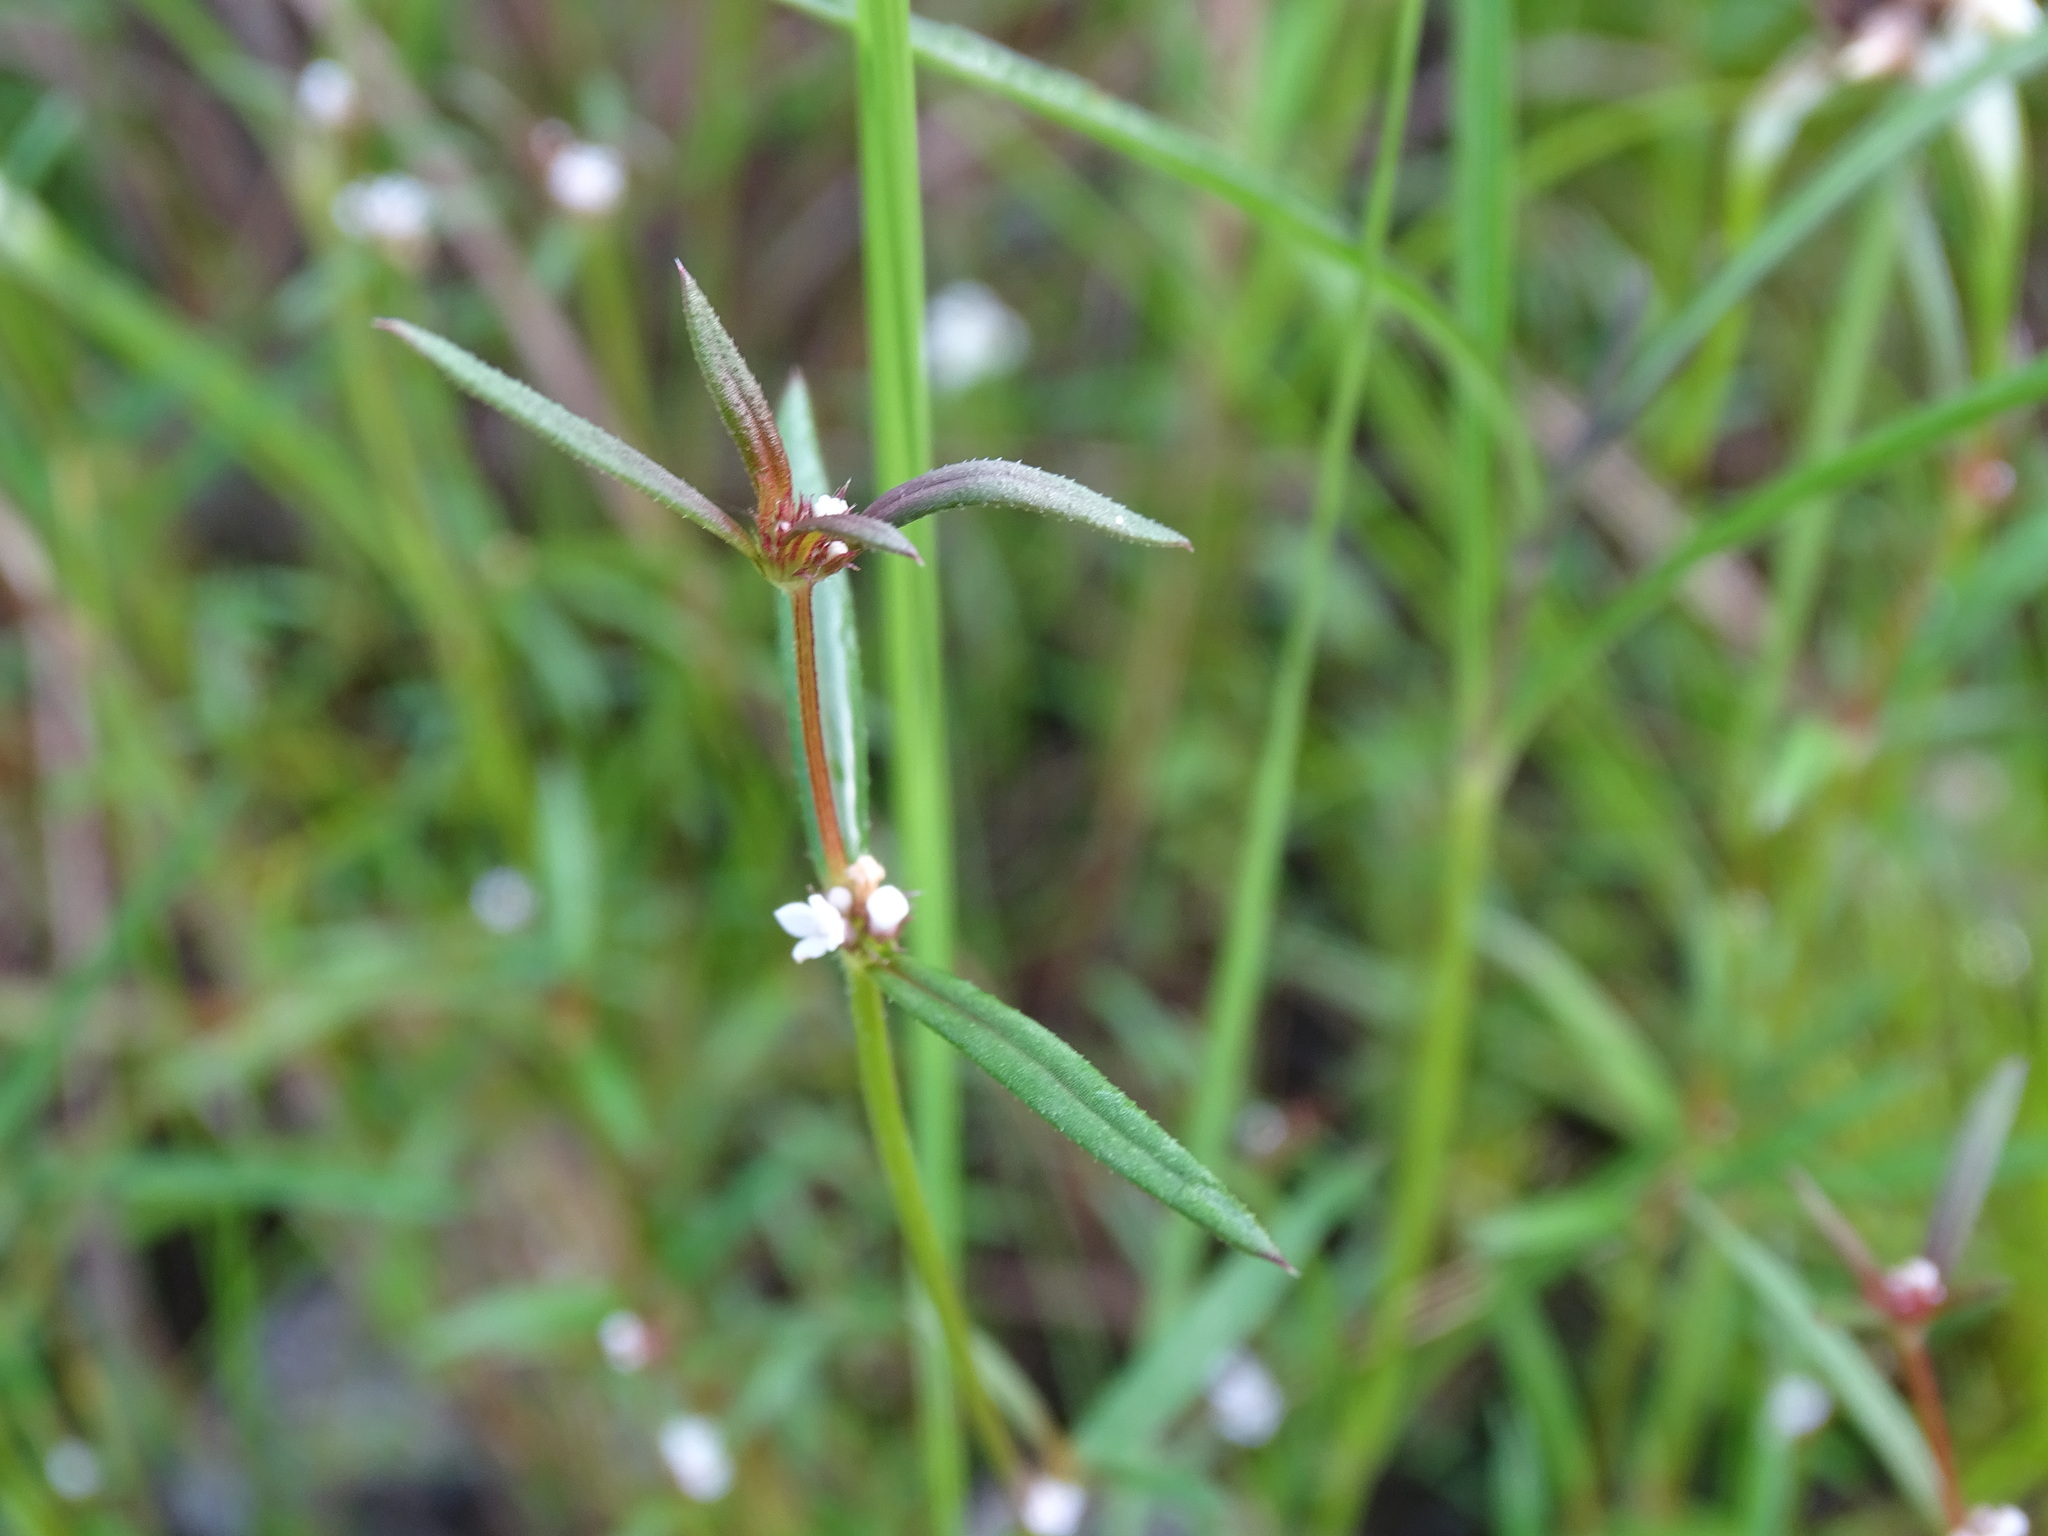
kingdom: Plantae
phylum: Tracheophyta
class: Magnoliopsida
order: Gentianales
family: Rubiaceae
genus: Spermacoce
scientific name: Spermacoce confusa
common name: Iron-grass
